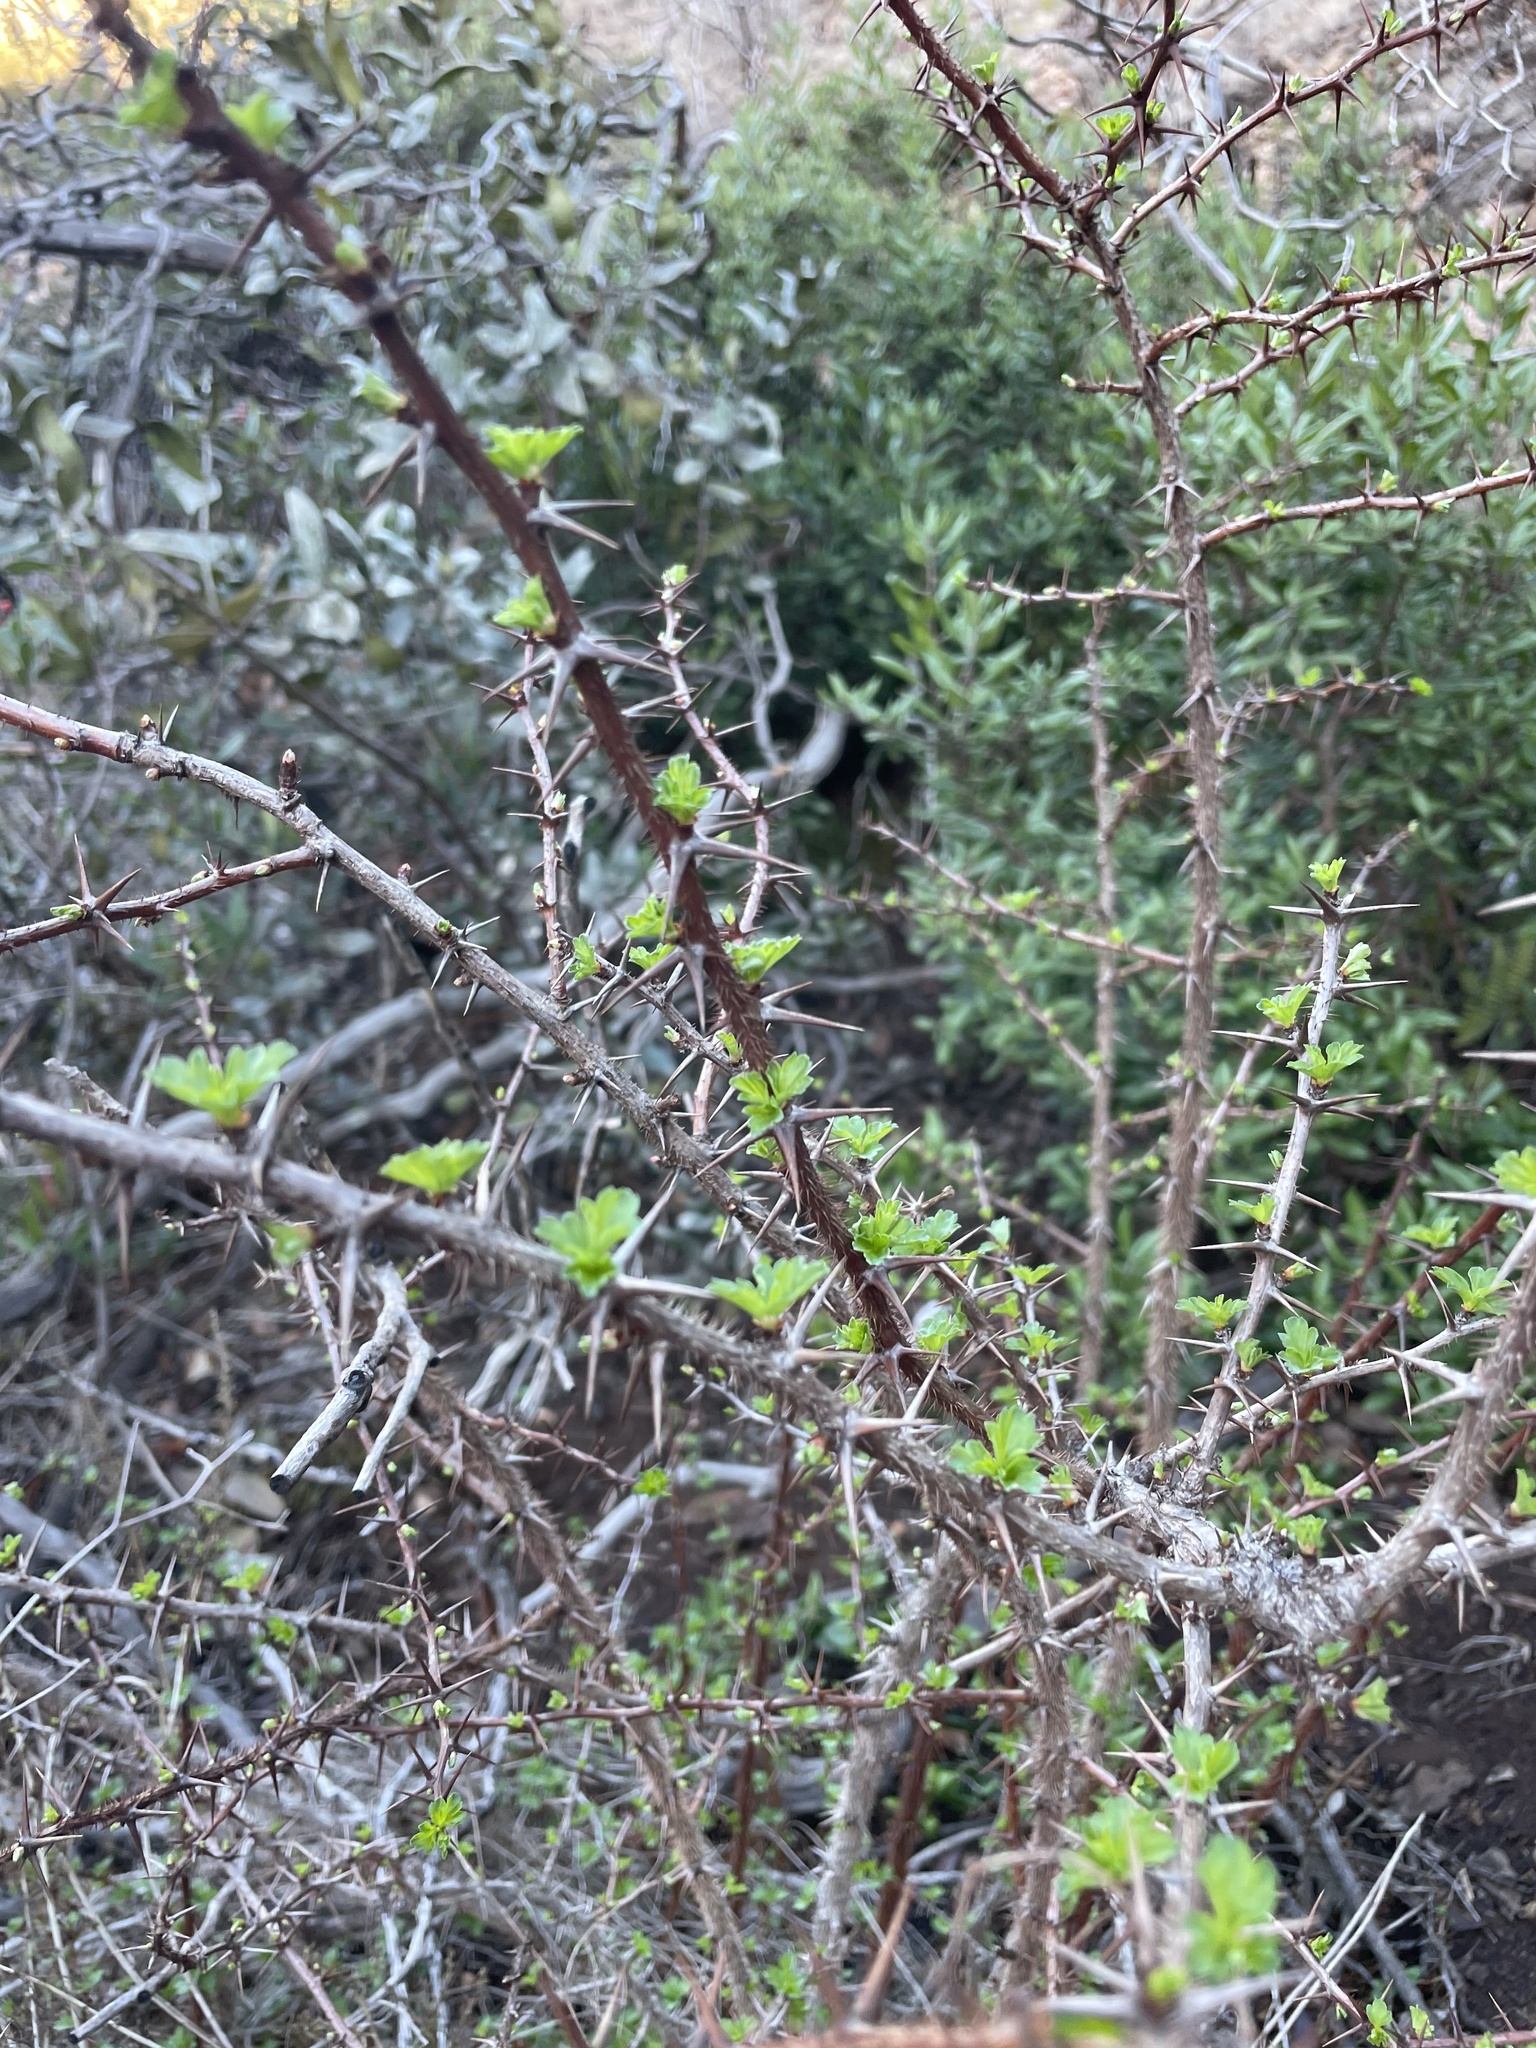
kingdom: Plantae
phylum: Tracheophyta
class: Magnoliopsida
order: Saxifragales
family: Grossulariaceae
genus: Ribes
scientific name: Ribes speciosum
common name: Fuchsia-flower gooseberry
